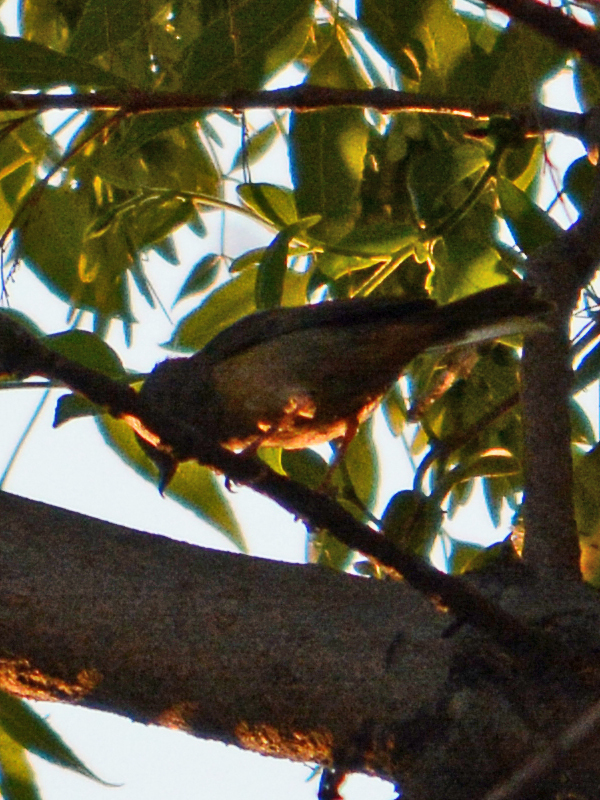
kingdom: Animalia
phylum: Chordata
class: Aves
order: Passeriformes
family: Thraupidae
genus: Diglossa
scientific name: Diglossa baritula
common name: Cinnamon-bellied flowerpiercer
